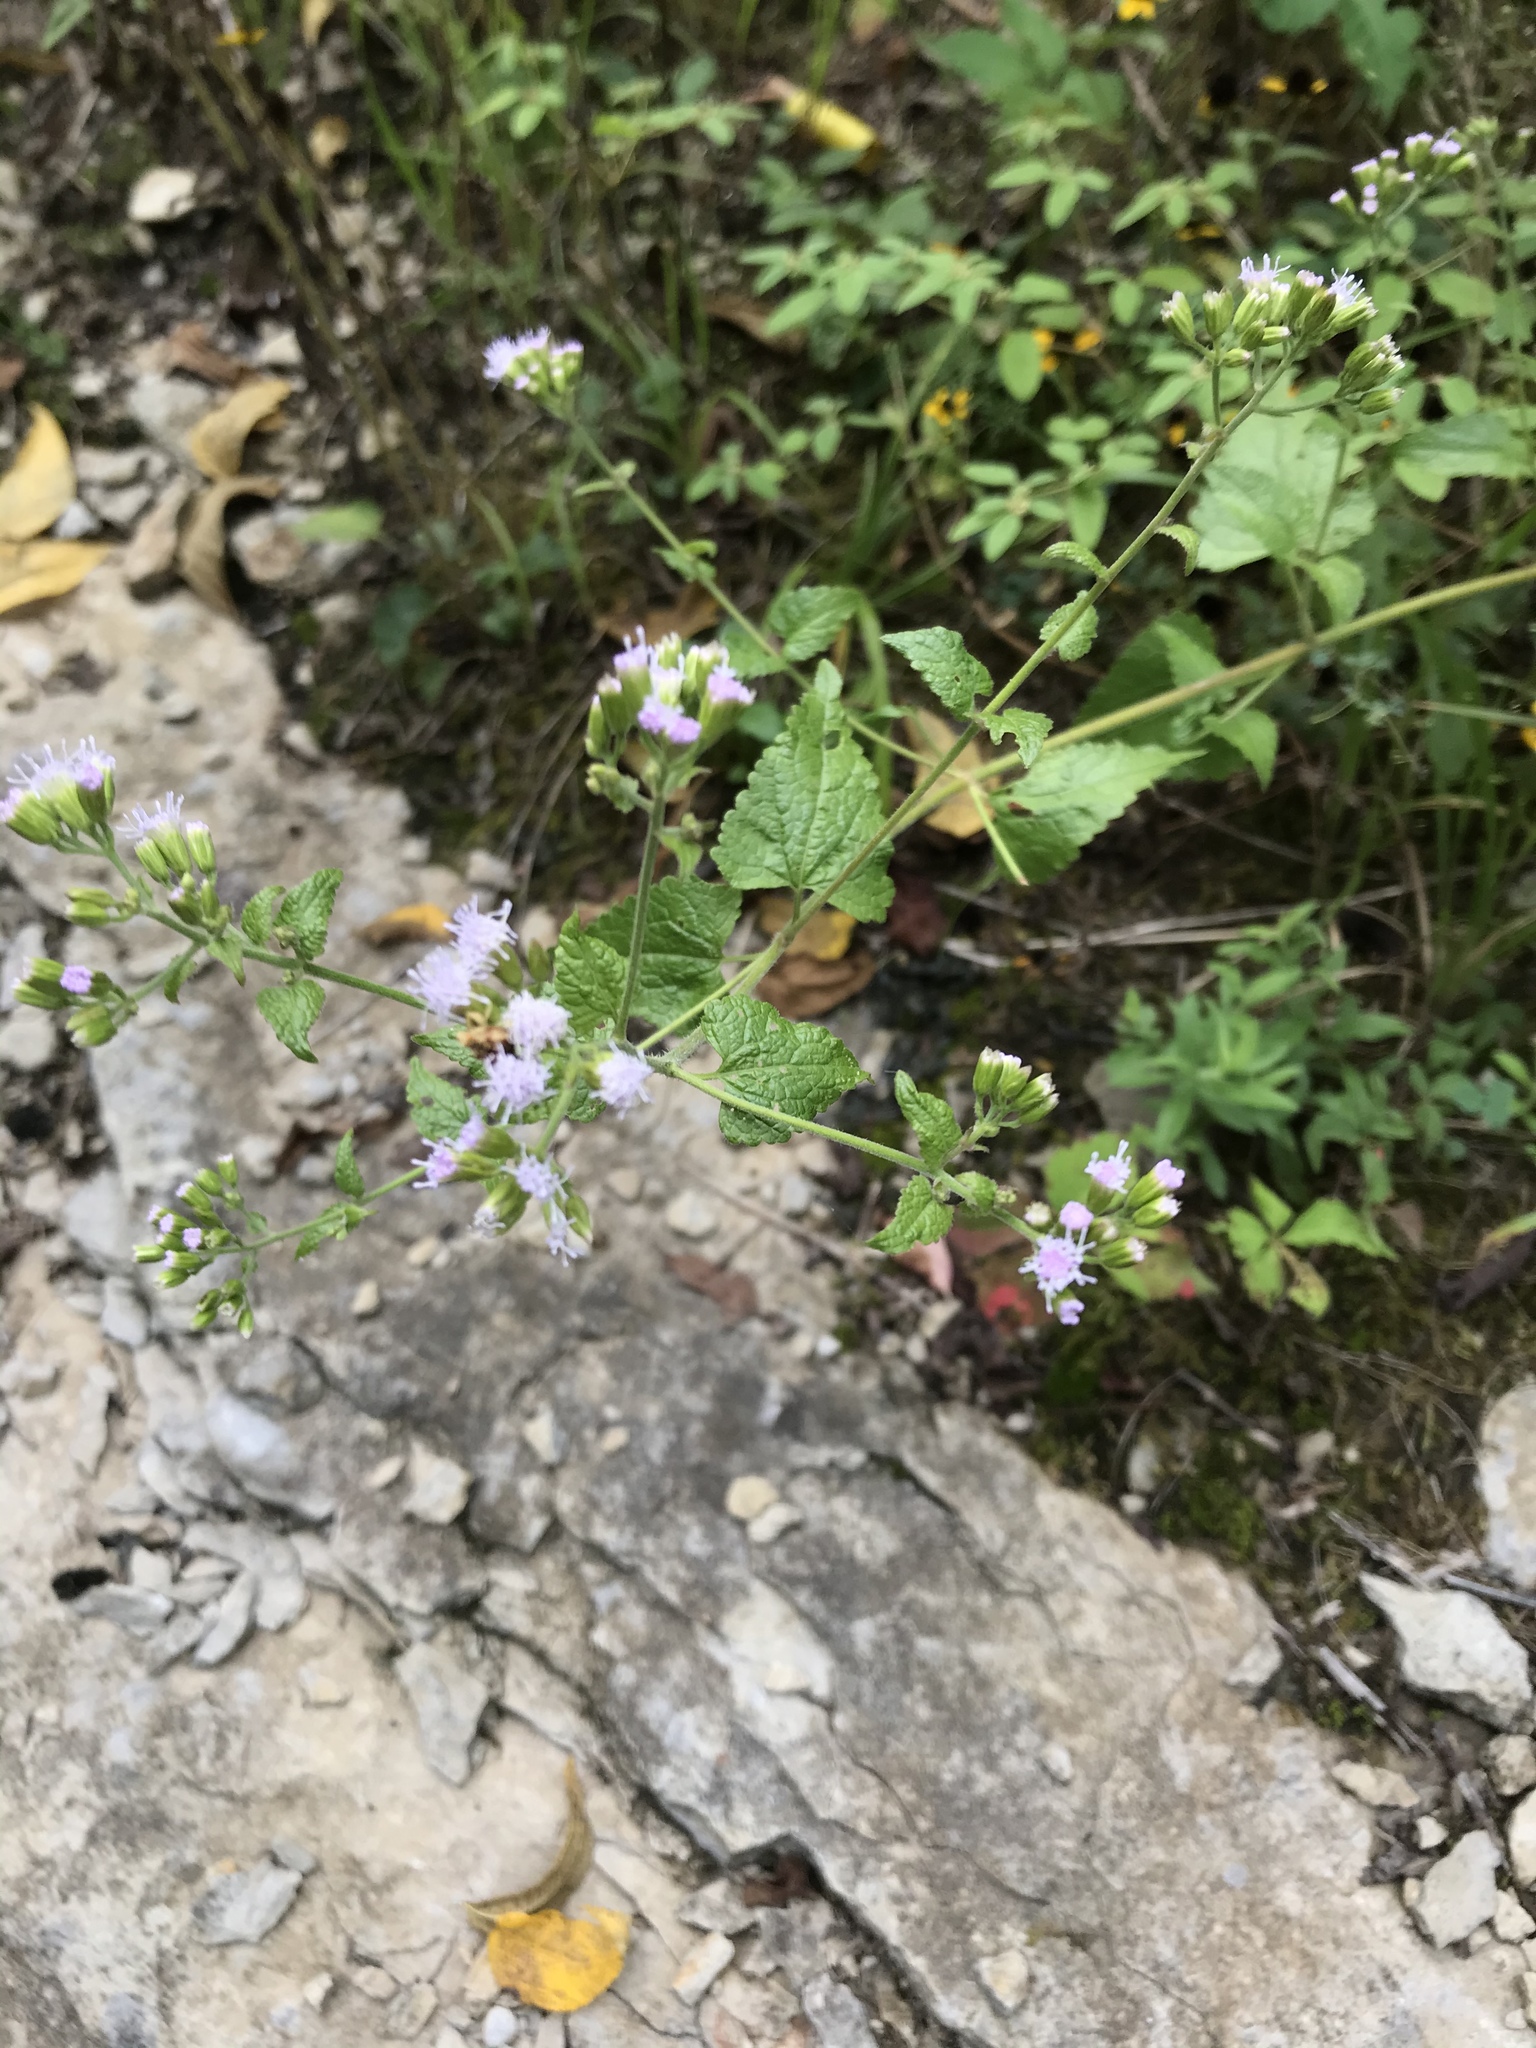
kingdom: Plantae
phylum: Tracheophyta
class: Magnoliopsida
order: Asterales
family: Asteraceae
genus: Conoclinium
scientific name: Conoclinium coelestinum
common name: Blue mistflower
